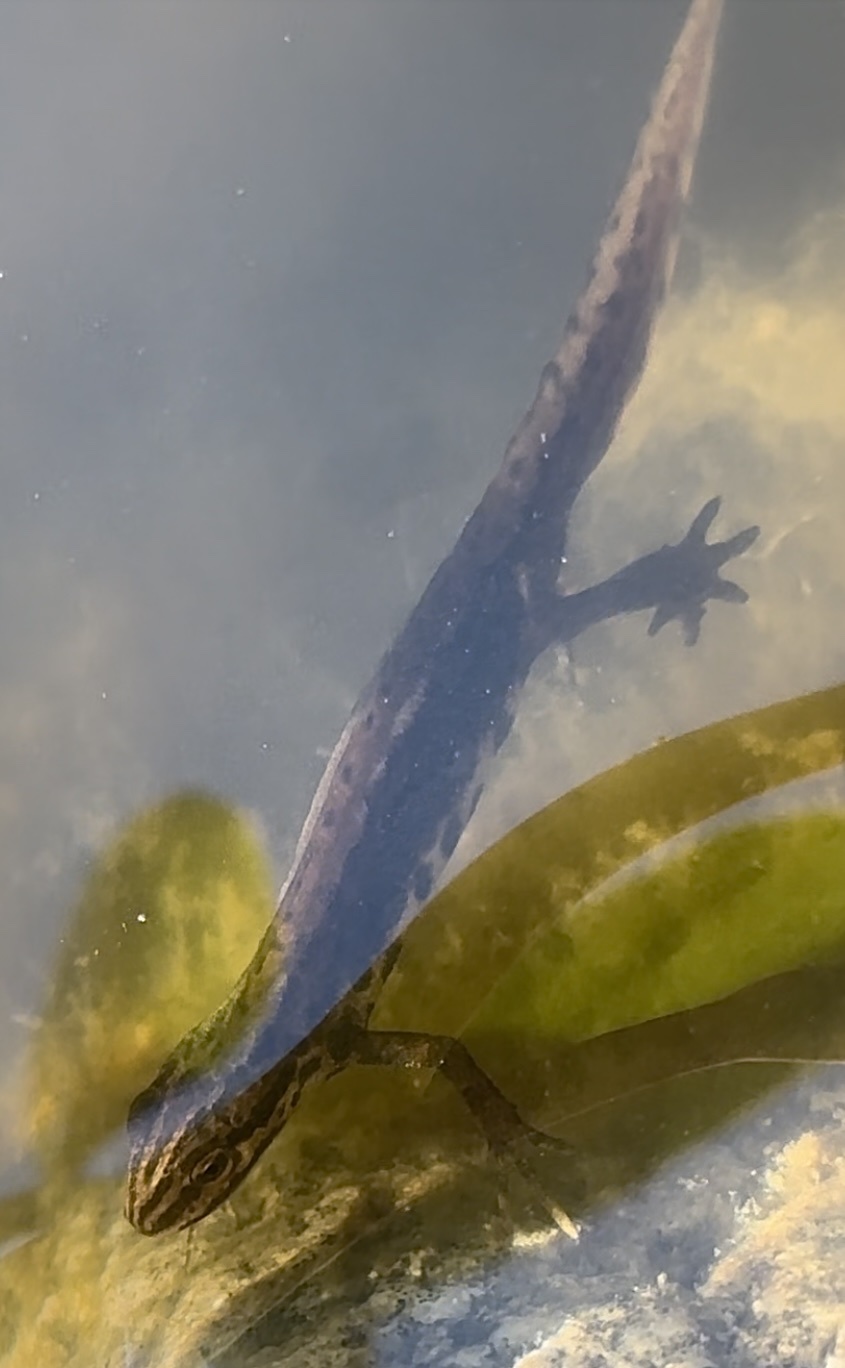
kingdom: Animalia
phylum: Chordata
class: Amphibia
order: Caudata
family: Salamandridae
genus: Lissotriton
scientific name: Lissotriton vulgaris
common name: Smooth newt
